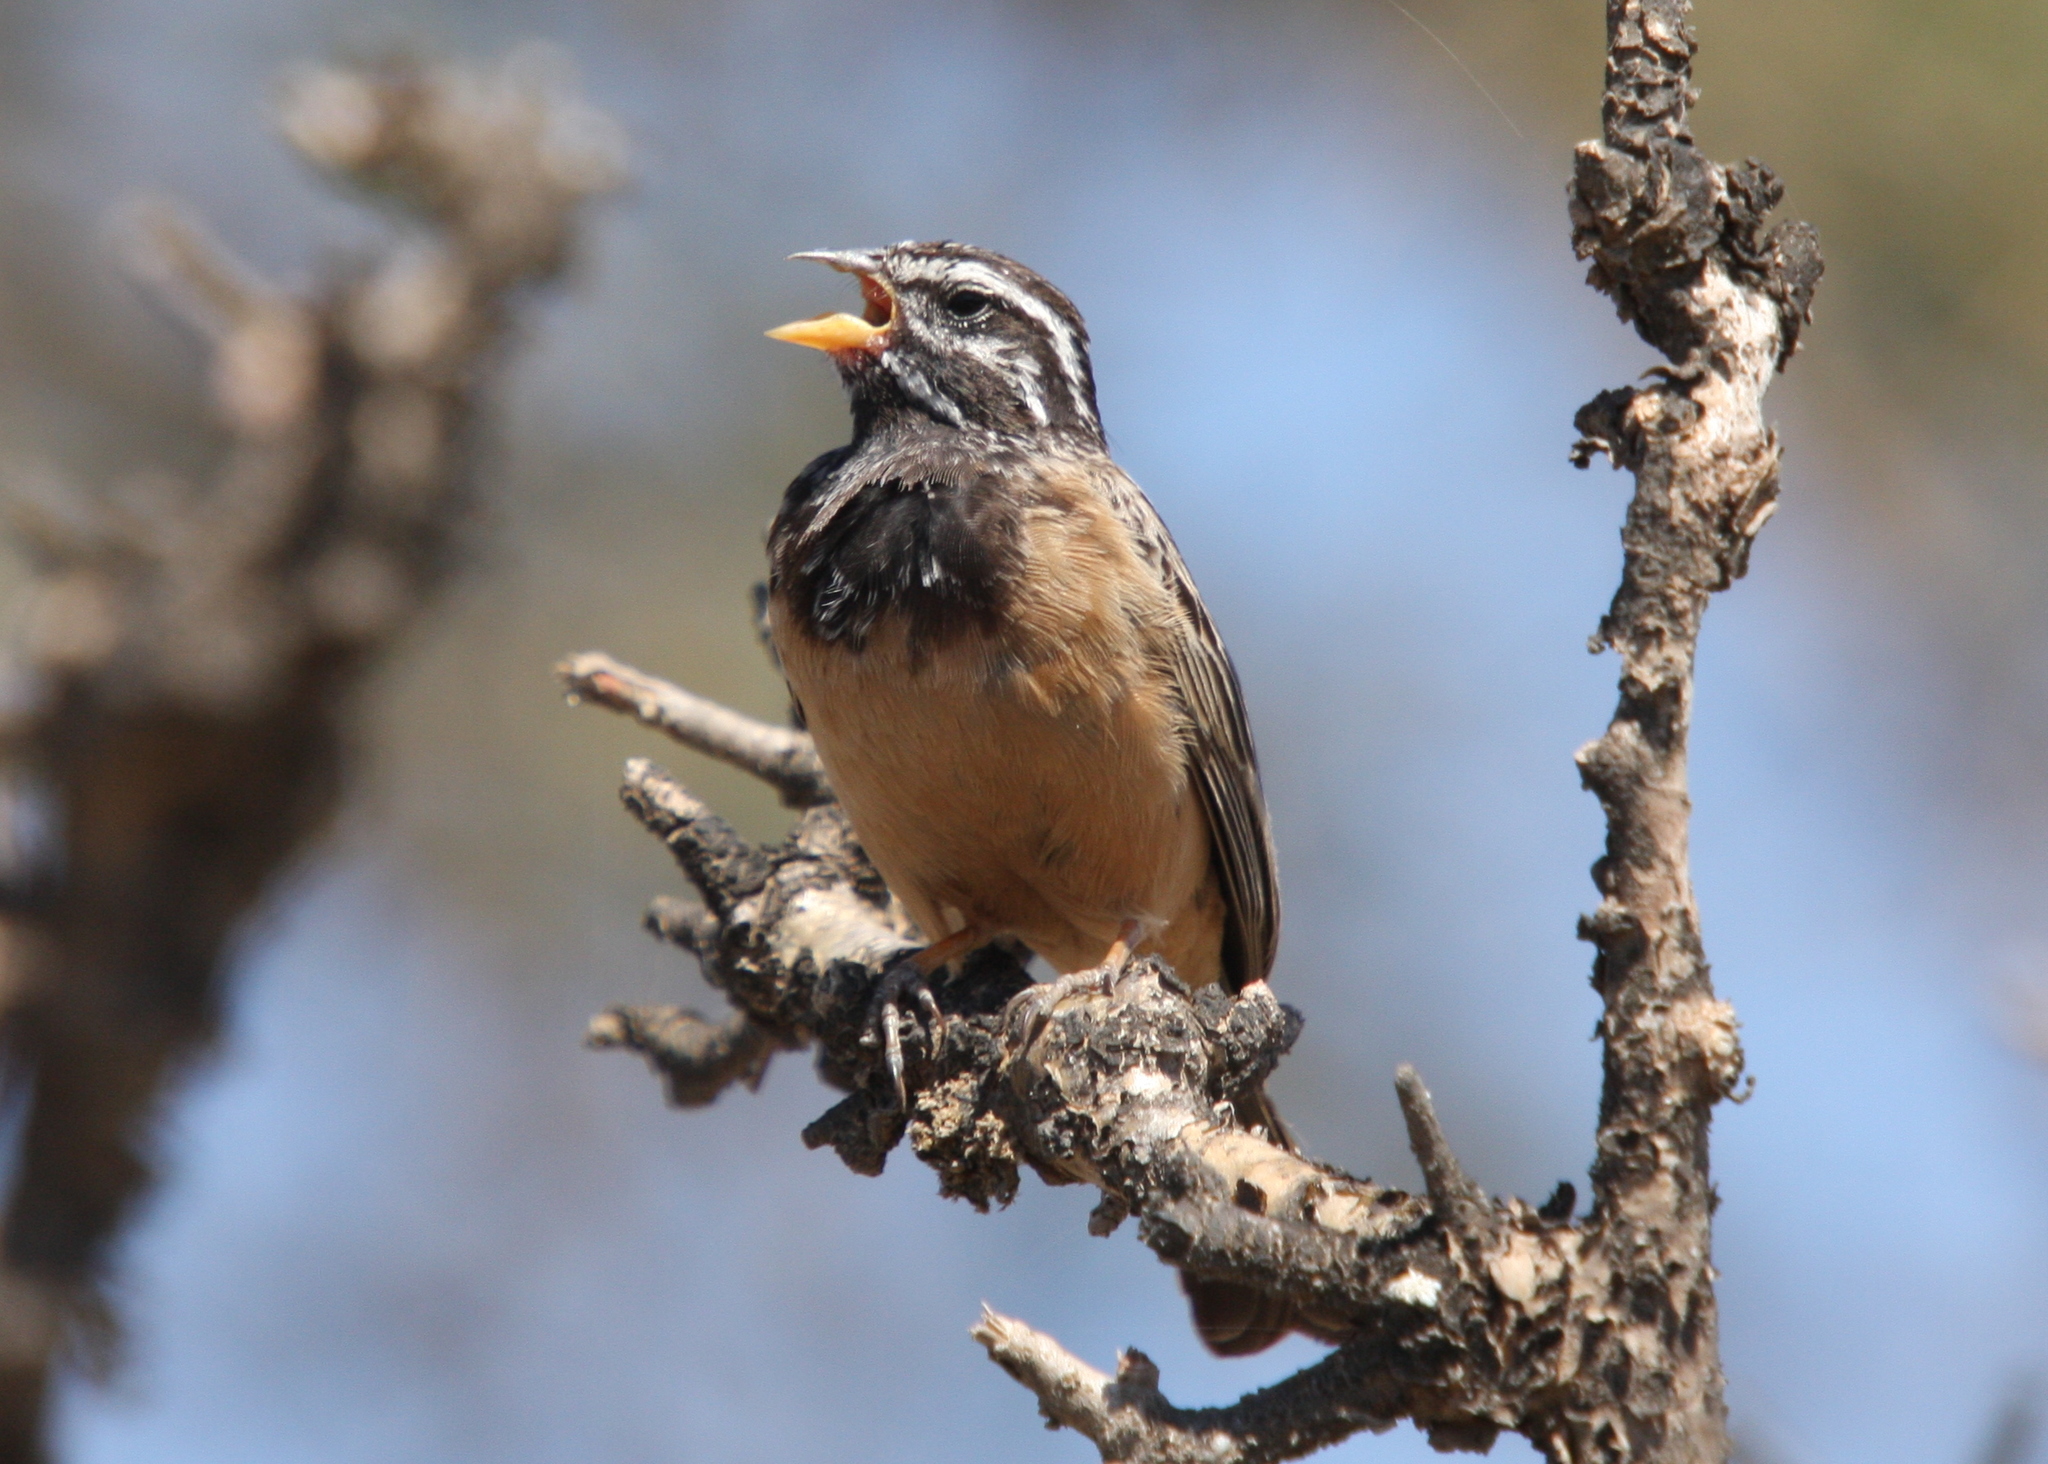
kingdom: Animalia
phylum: Chordata
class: Aves
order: Passeriformes
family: Emberizidae
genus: Emberiza
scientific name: Emberiza tahapisi
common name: Cinnamon-breasted bunting
